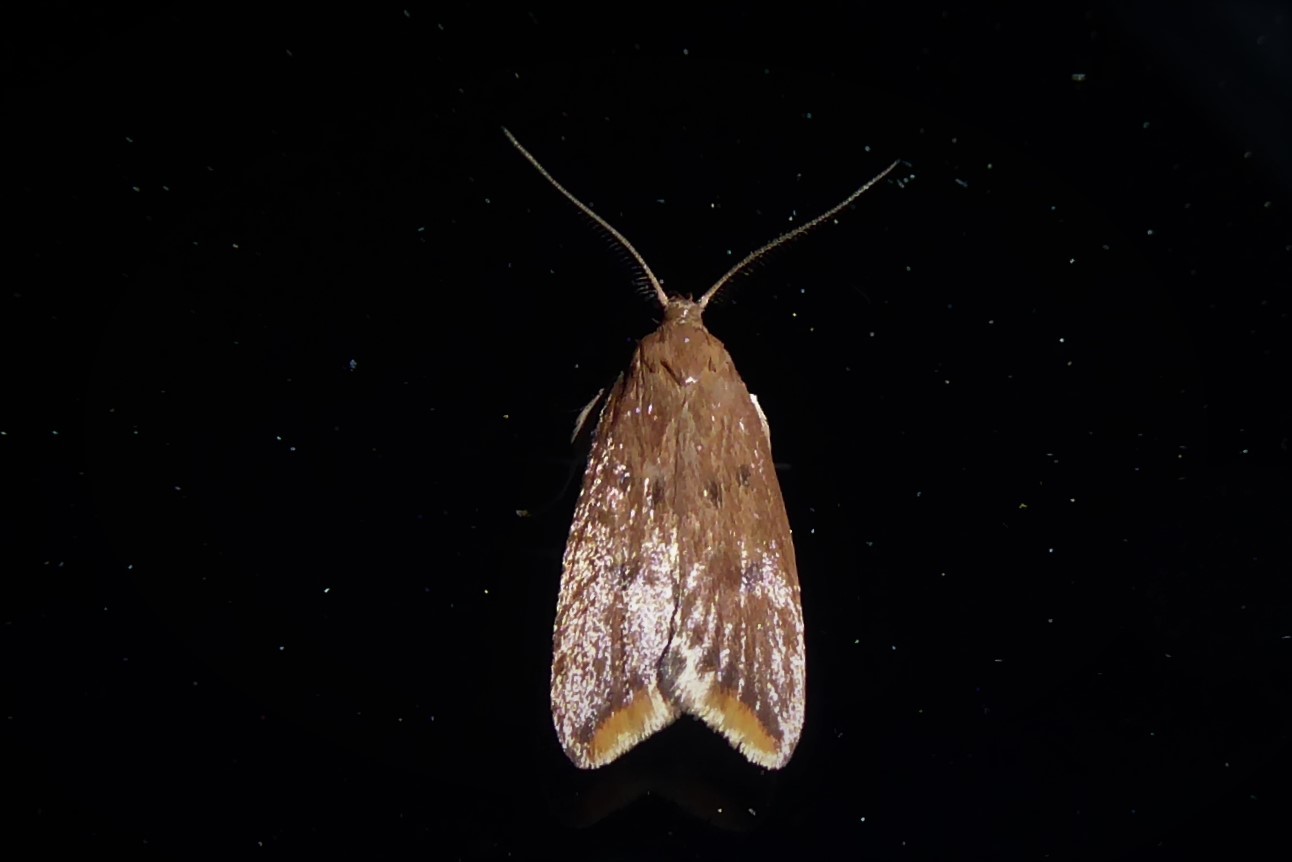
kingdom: Animalia
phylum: Arthropoda
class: Insecta
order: Lepidoptera
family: Oecophoridae
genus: Tachystola
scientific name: Tachystola acroxantha
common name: Ruddy streak
